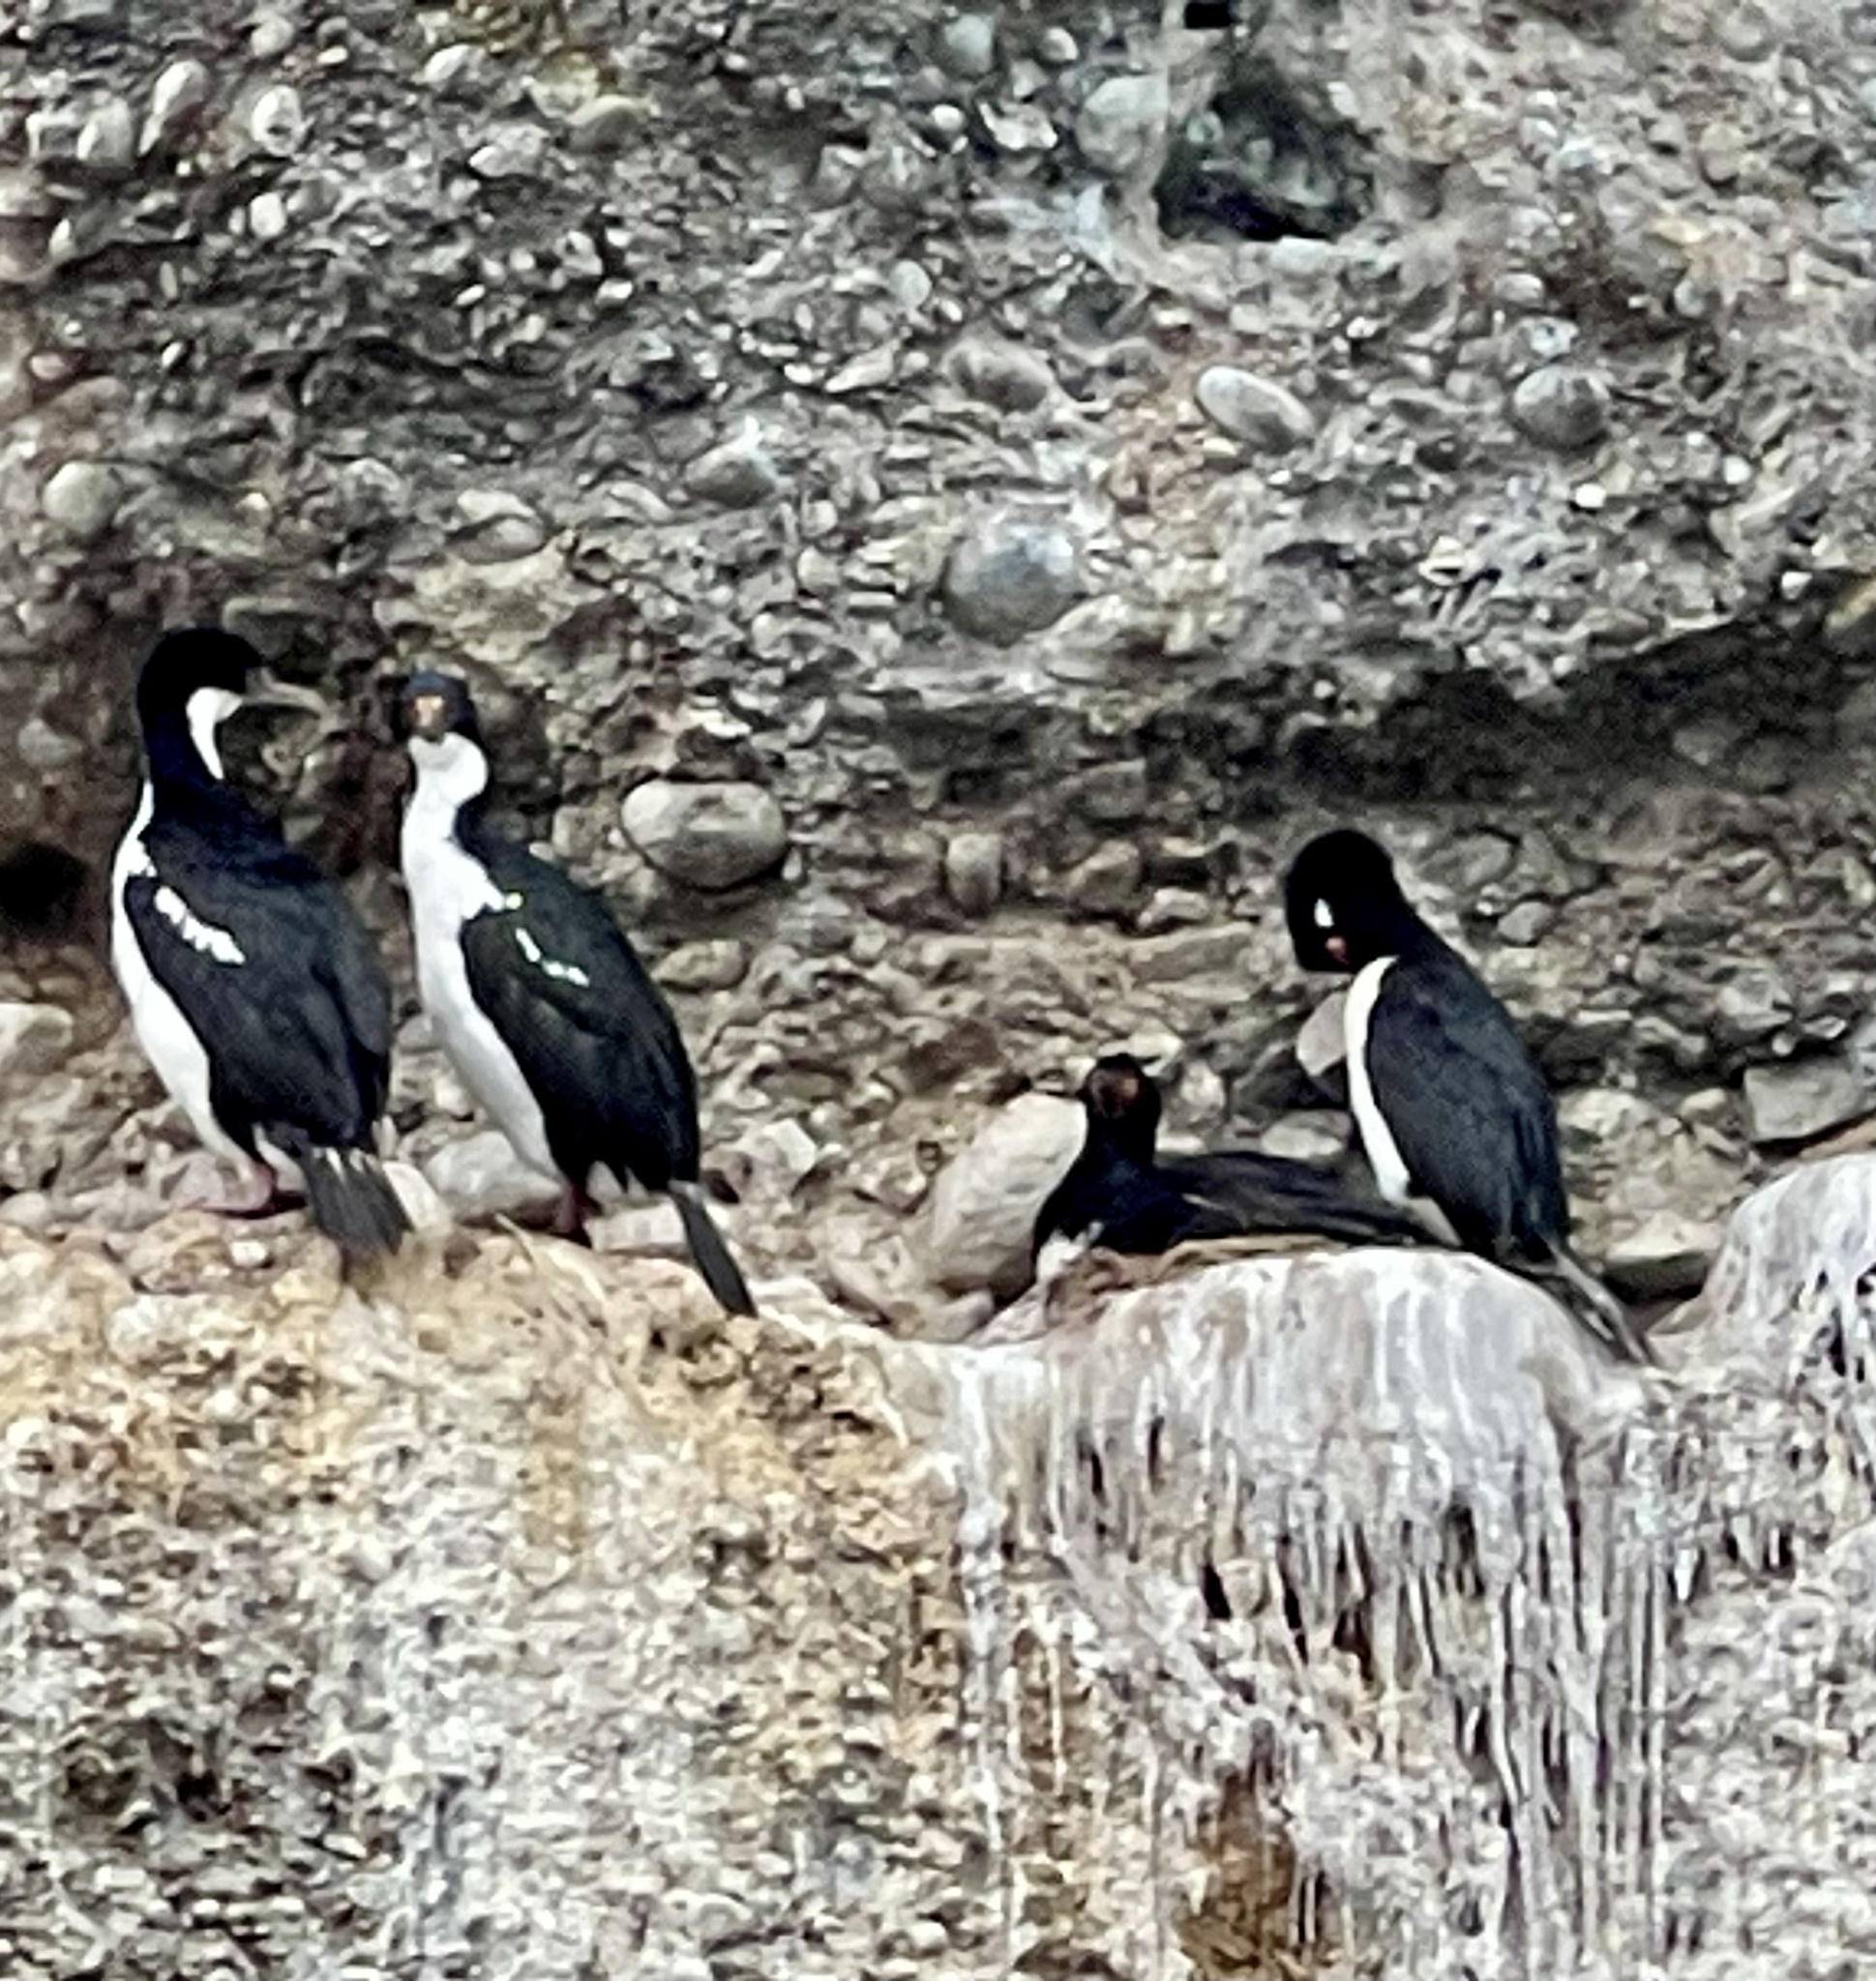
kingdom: Animalia
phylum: Chordata
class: Aves
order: Suliformes
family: Phalacrocoracidae
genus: Leucocarbo
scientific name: Leucocarbo atriceps
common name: Imperial shag
